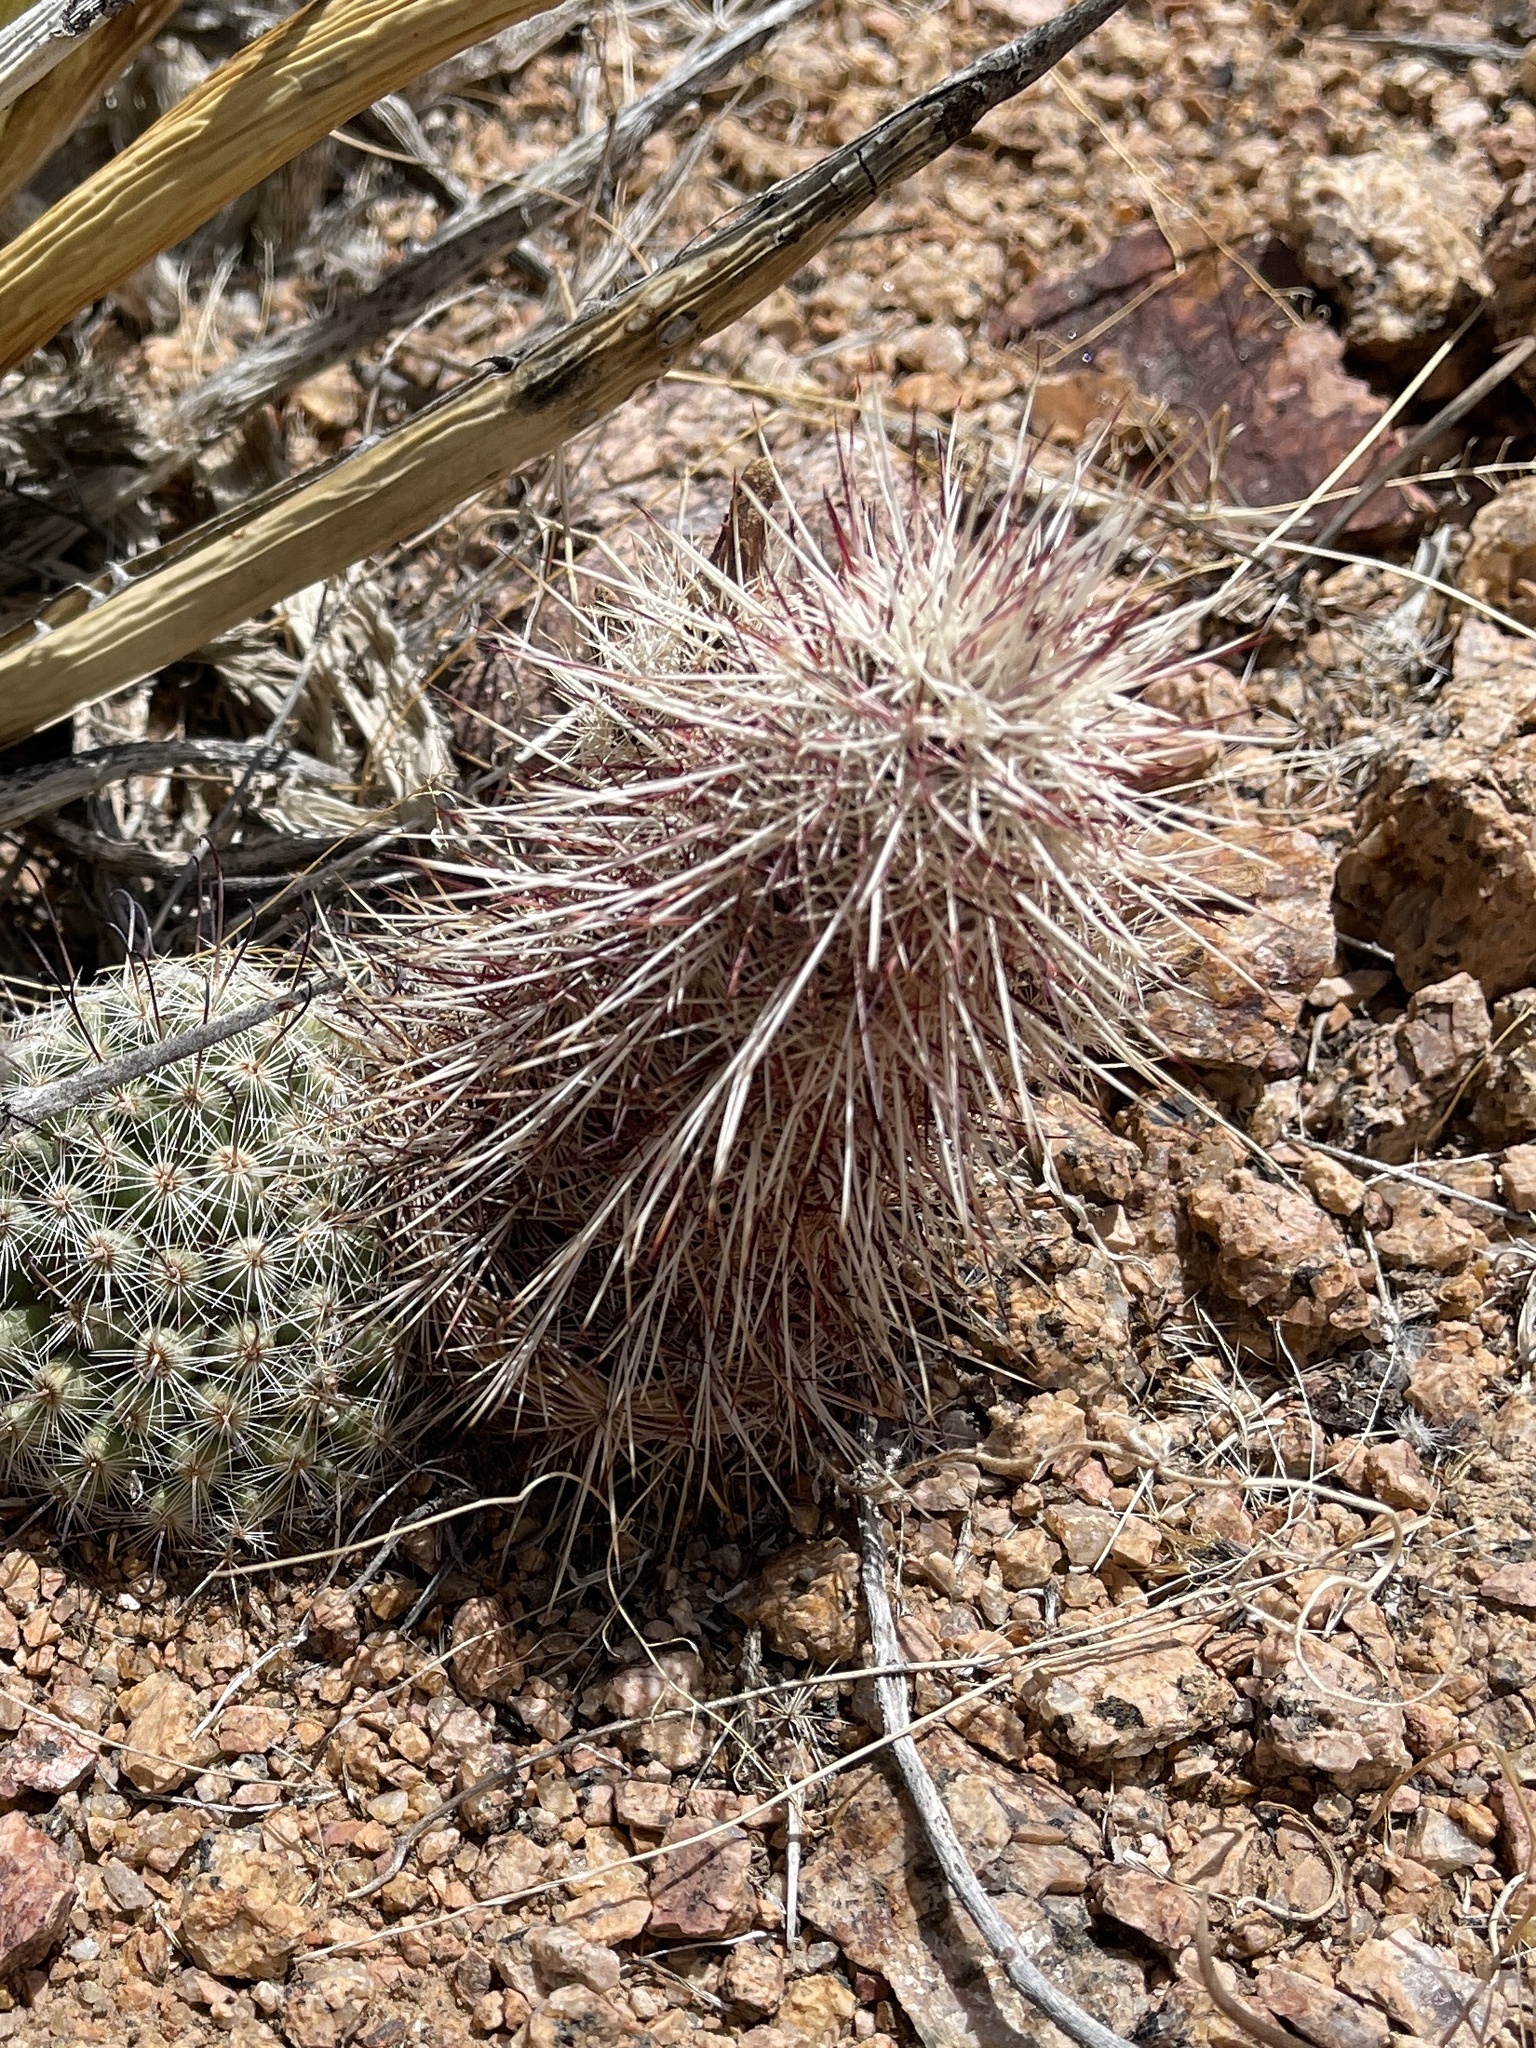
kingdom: Plantae
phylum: Tracheophyta
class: Magnoliopsida
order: Caryophyllales
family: Cactaceae
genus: Echinocereus
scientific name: Echinocereus viridiflorus
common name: Nylon hedgehog cactus
